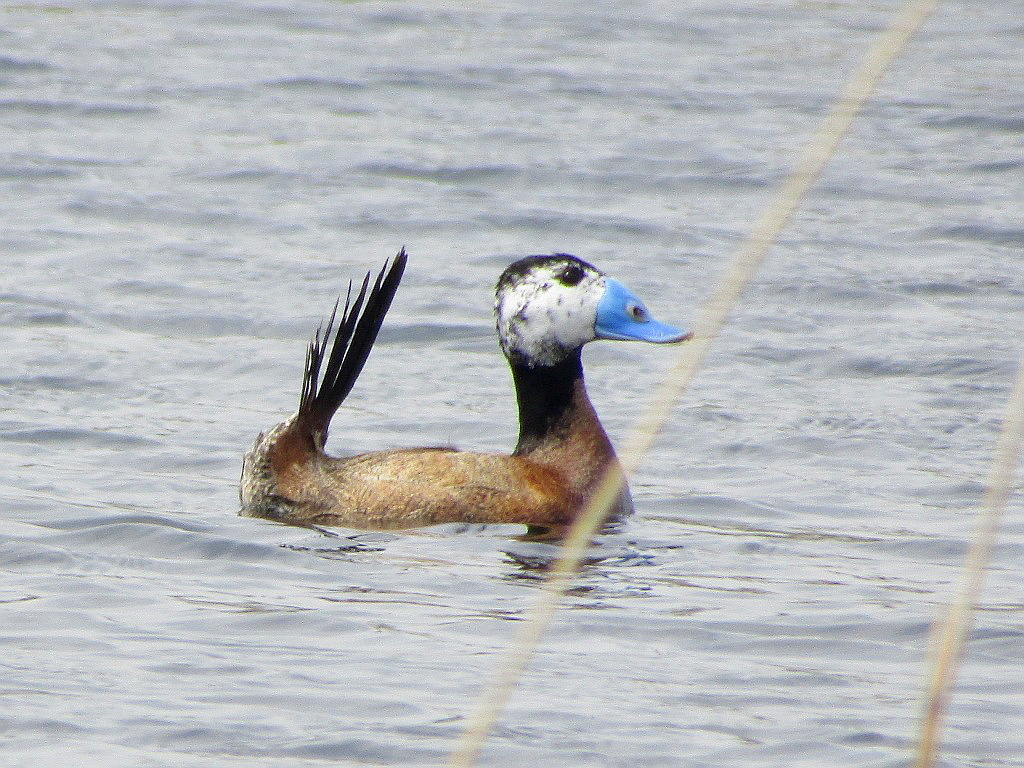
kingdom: Animalia
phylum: Chordata
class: Aves
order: Anseriformes
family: Anatidae
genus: Oxyura
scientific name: Oxyura leucocephala
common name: White-headed duck
